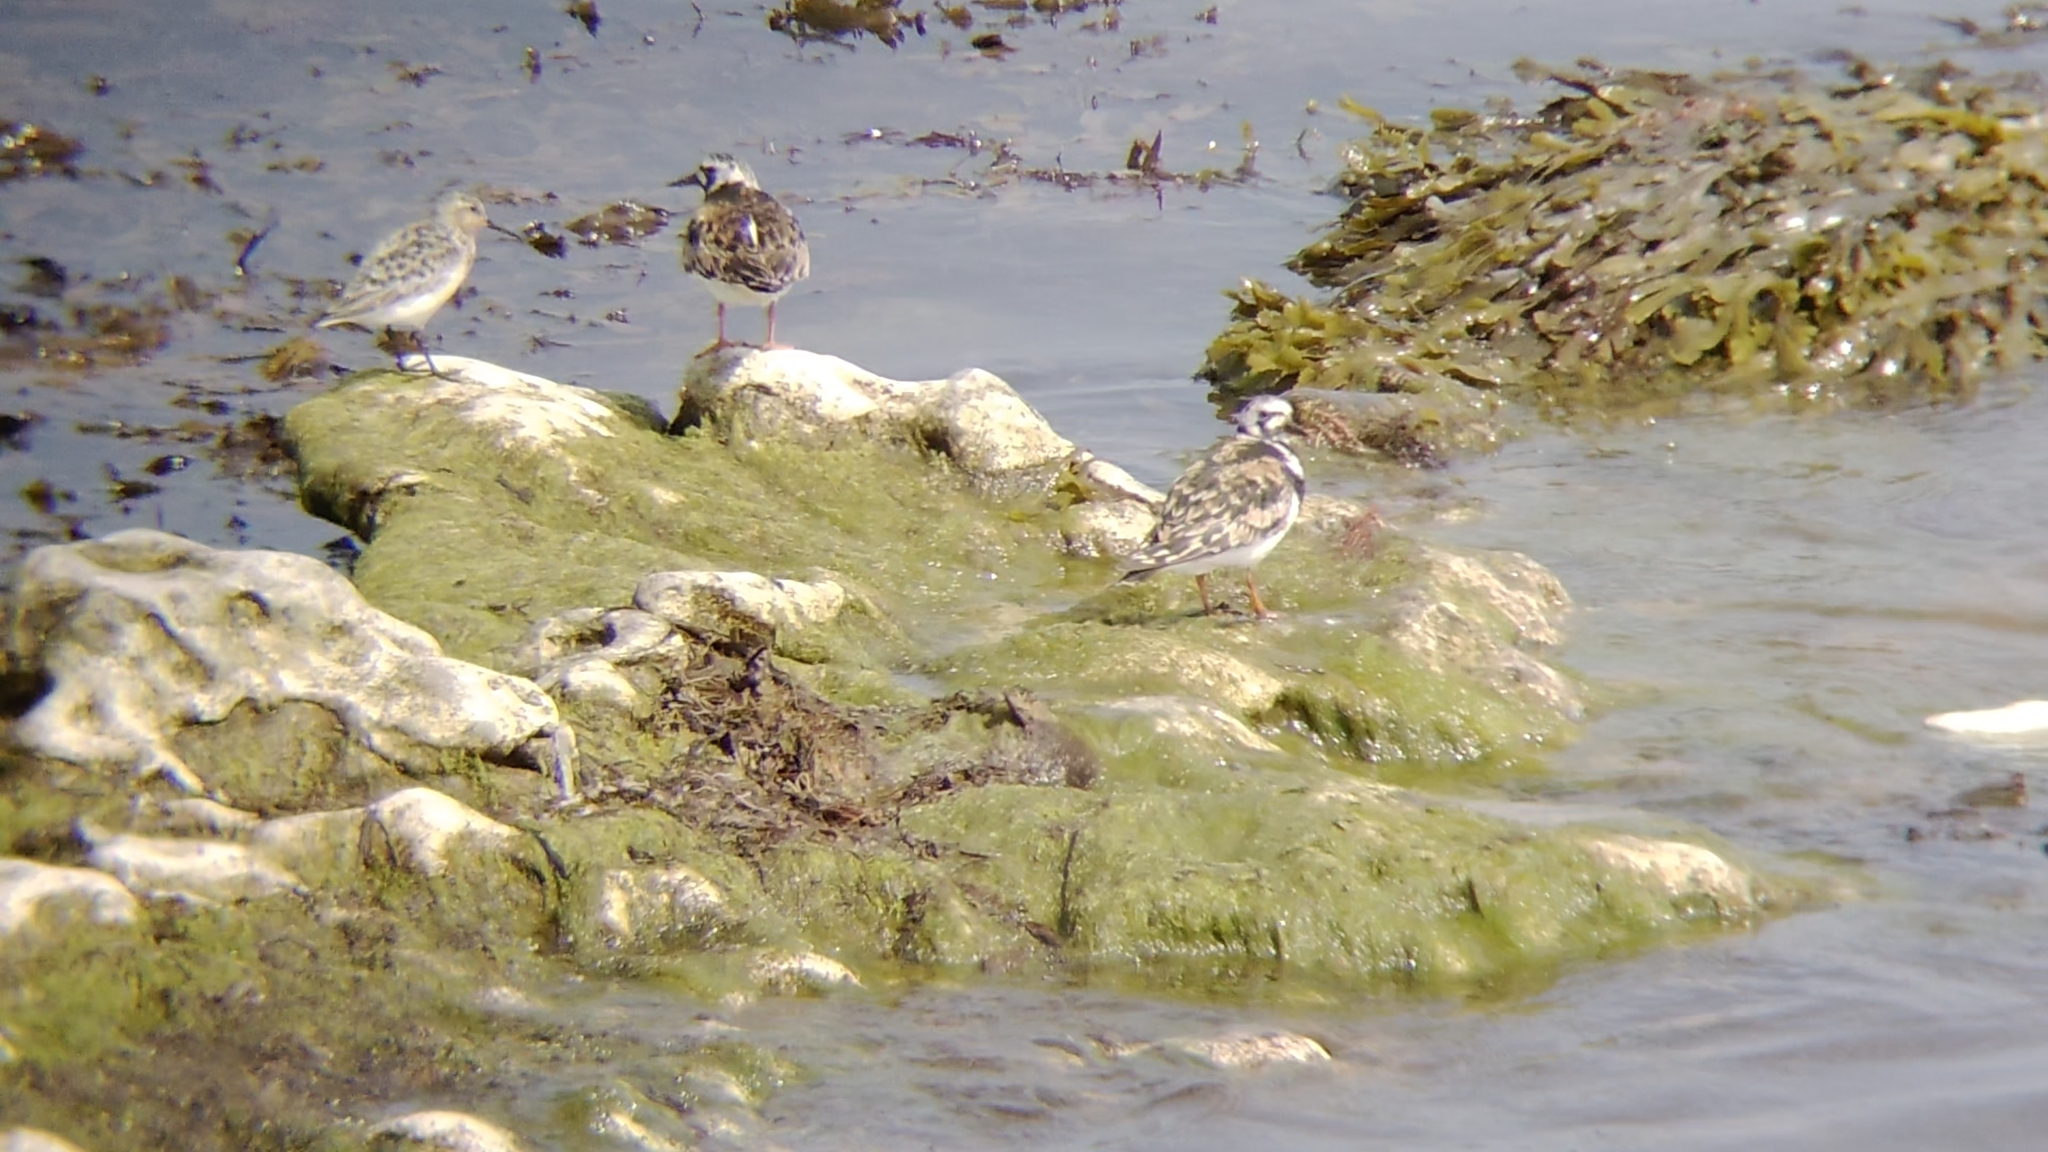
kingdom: Animalia
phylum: Chordata
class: Aves
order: Charadriiformes
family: Scolopacidae
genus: Arenaria
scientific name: Arenaria interpres
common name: Ruddy turnstone
